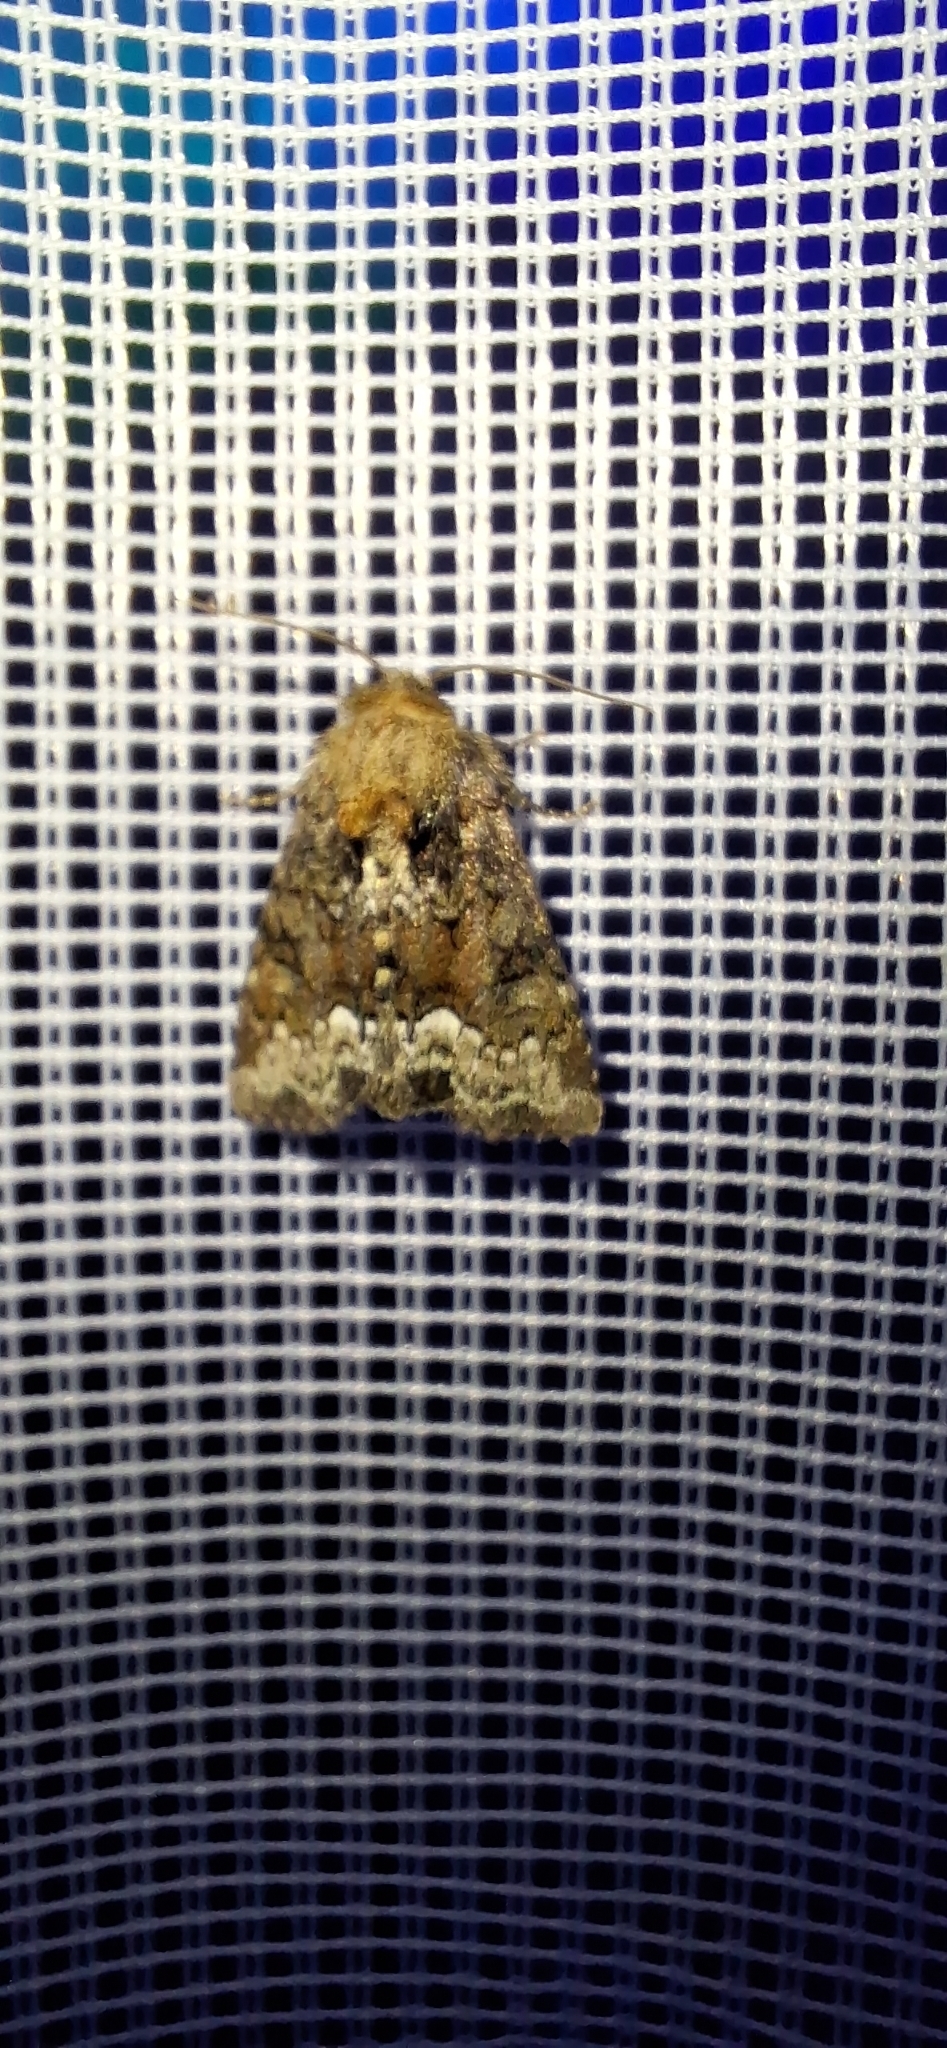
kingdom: Animalia
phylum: Arthropoda
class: Insecta
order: Lepidoptera
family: Noctuidae
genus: Oligia
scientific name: Oligia strigilis
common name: Marbled minor
